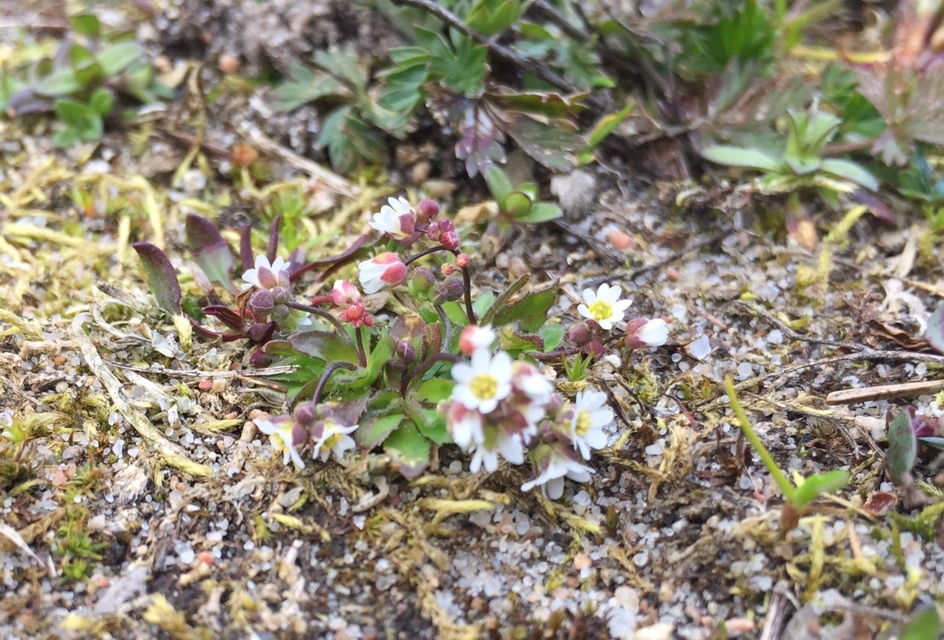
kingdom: Plantae
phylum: Tracheophyta
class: Magnoliopsida
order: Brassicales
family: Brassicaceae
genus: Draba
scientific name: Draba verna
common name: Spring draba
